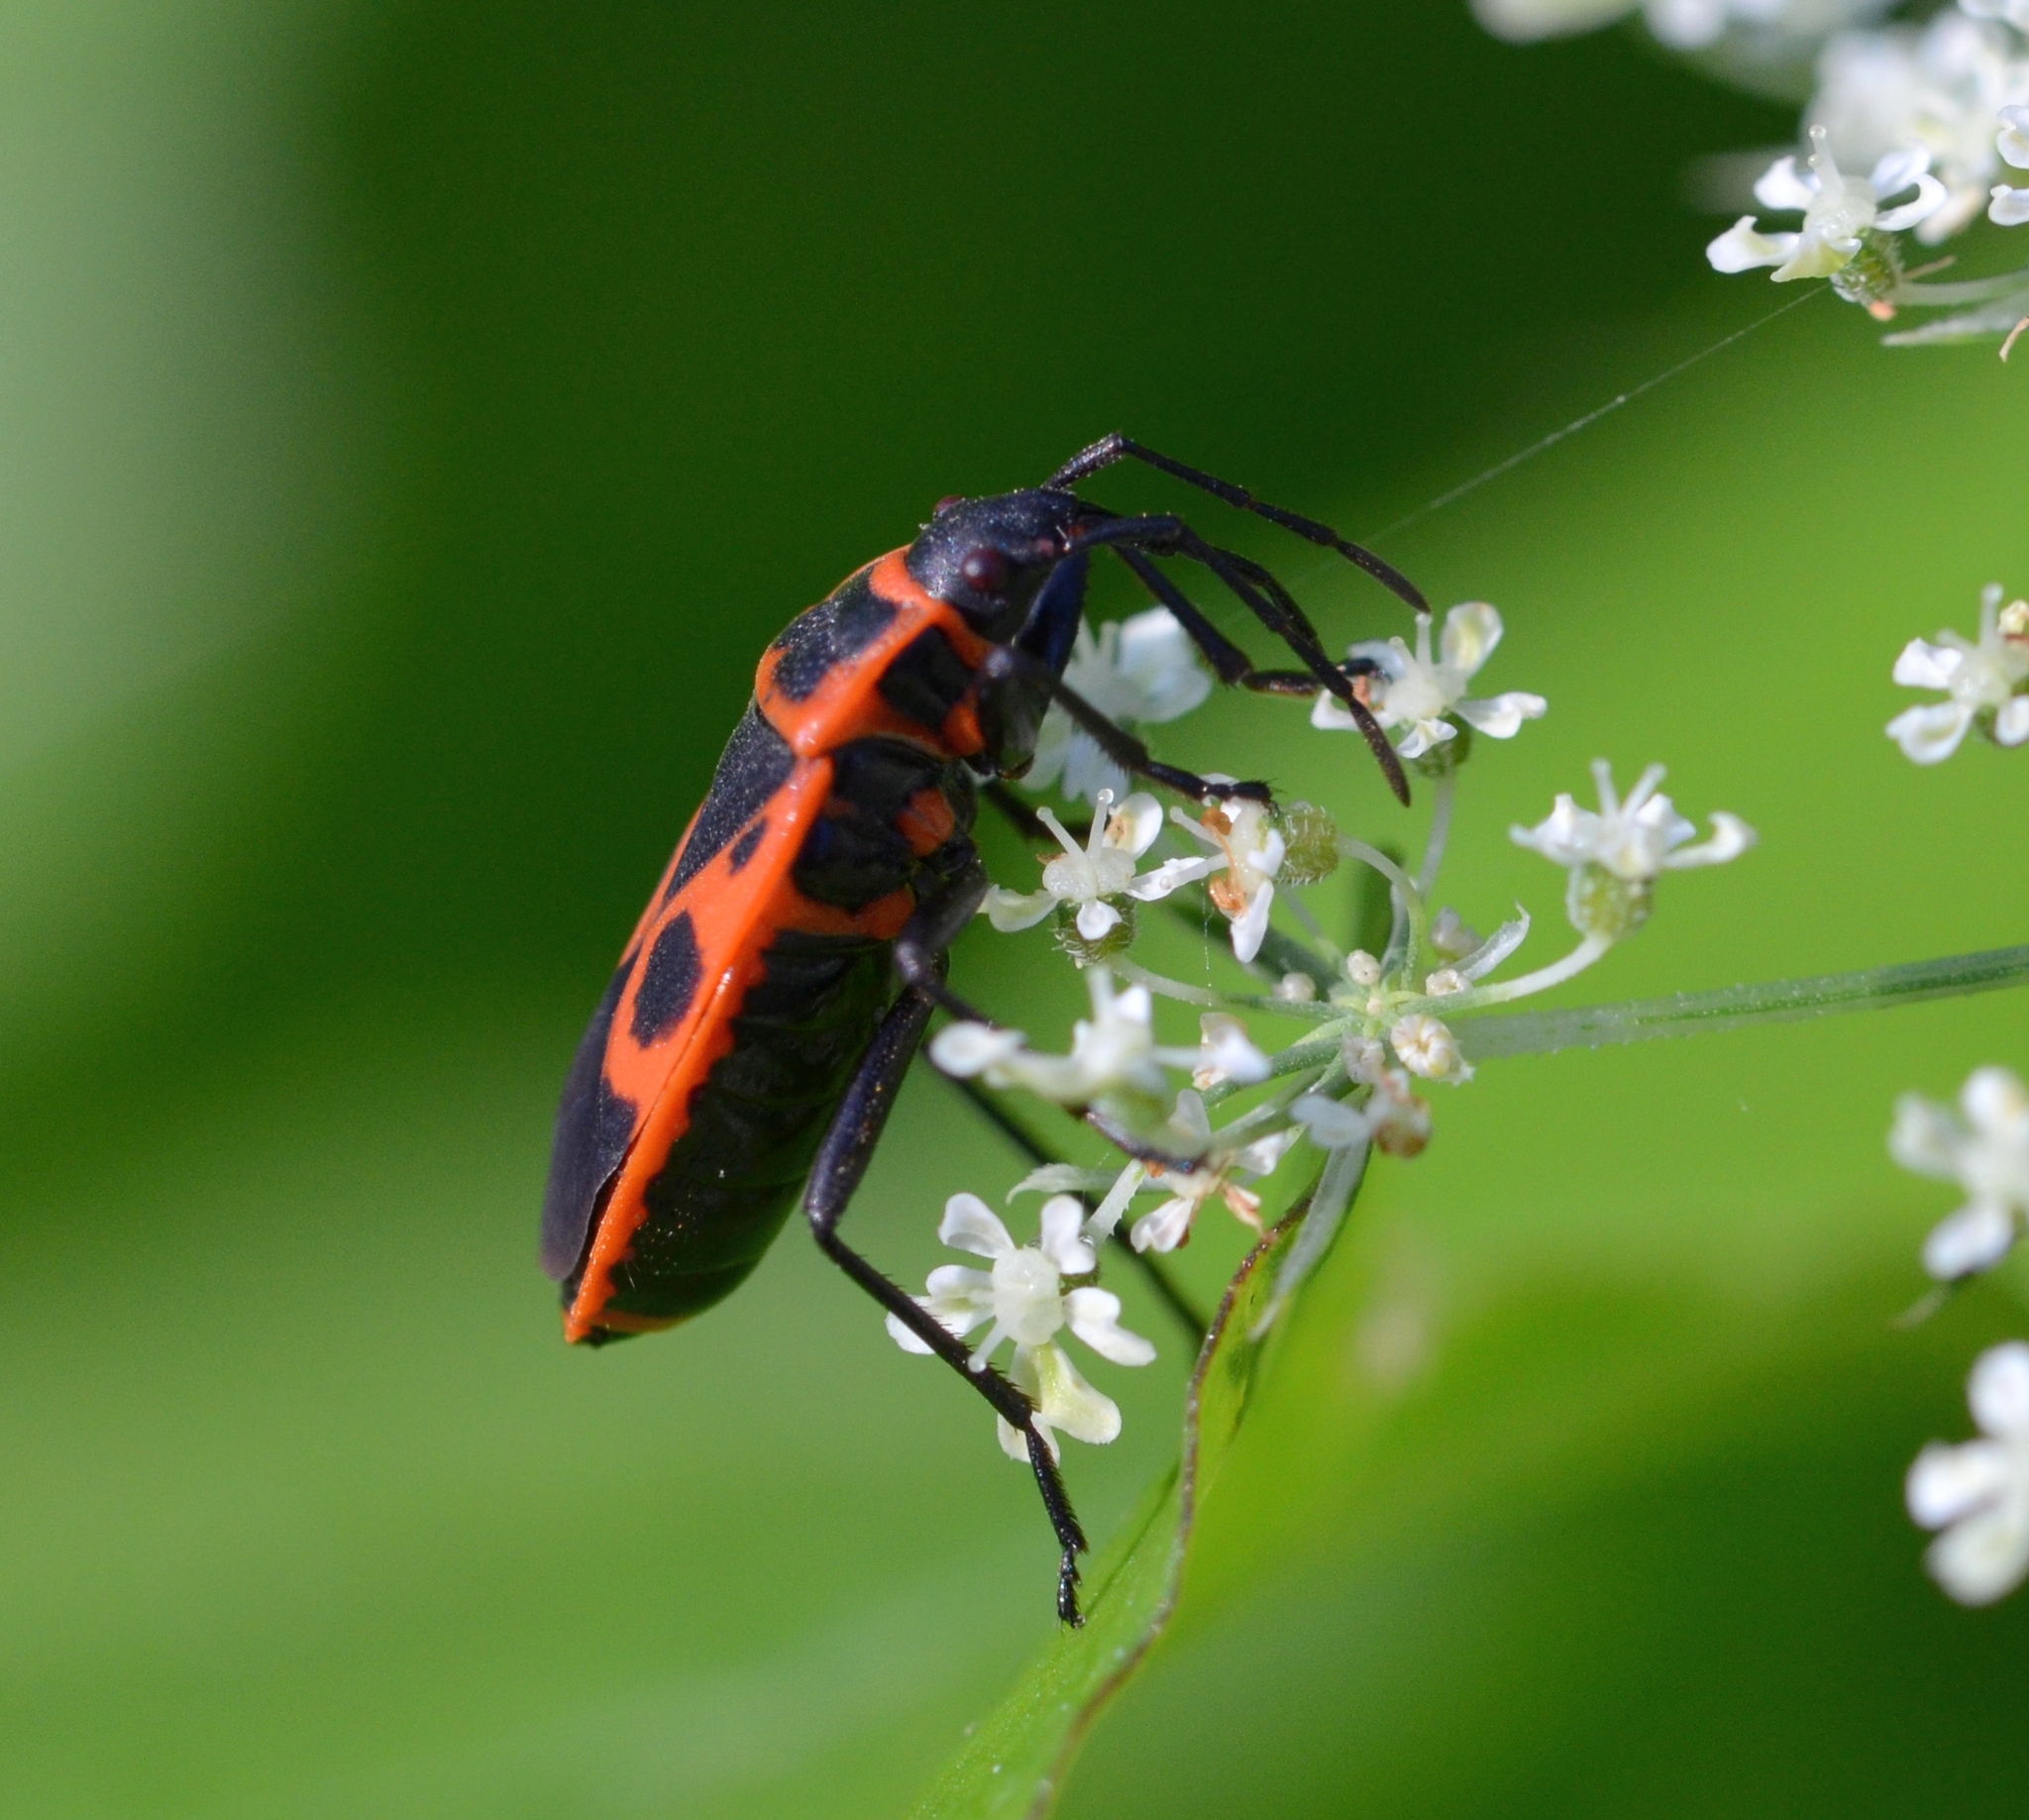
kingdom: Animalia
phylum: Arthropoda
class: Insecta
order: Hemiptera
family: Pyrrhocoridae
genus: Pyrrhocoris
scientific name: Pyrrhocoris apterus
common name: Firebug
